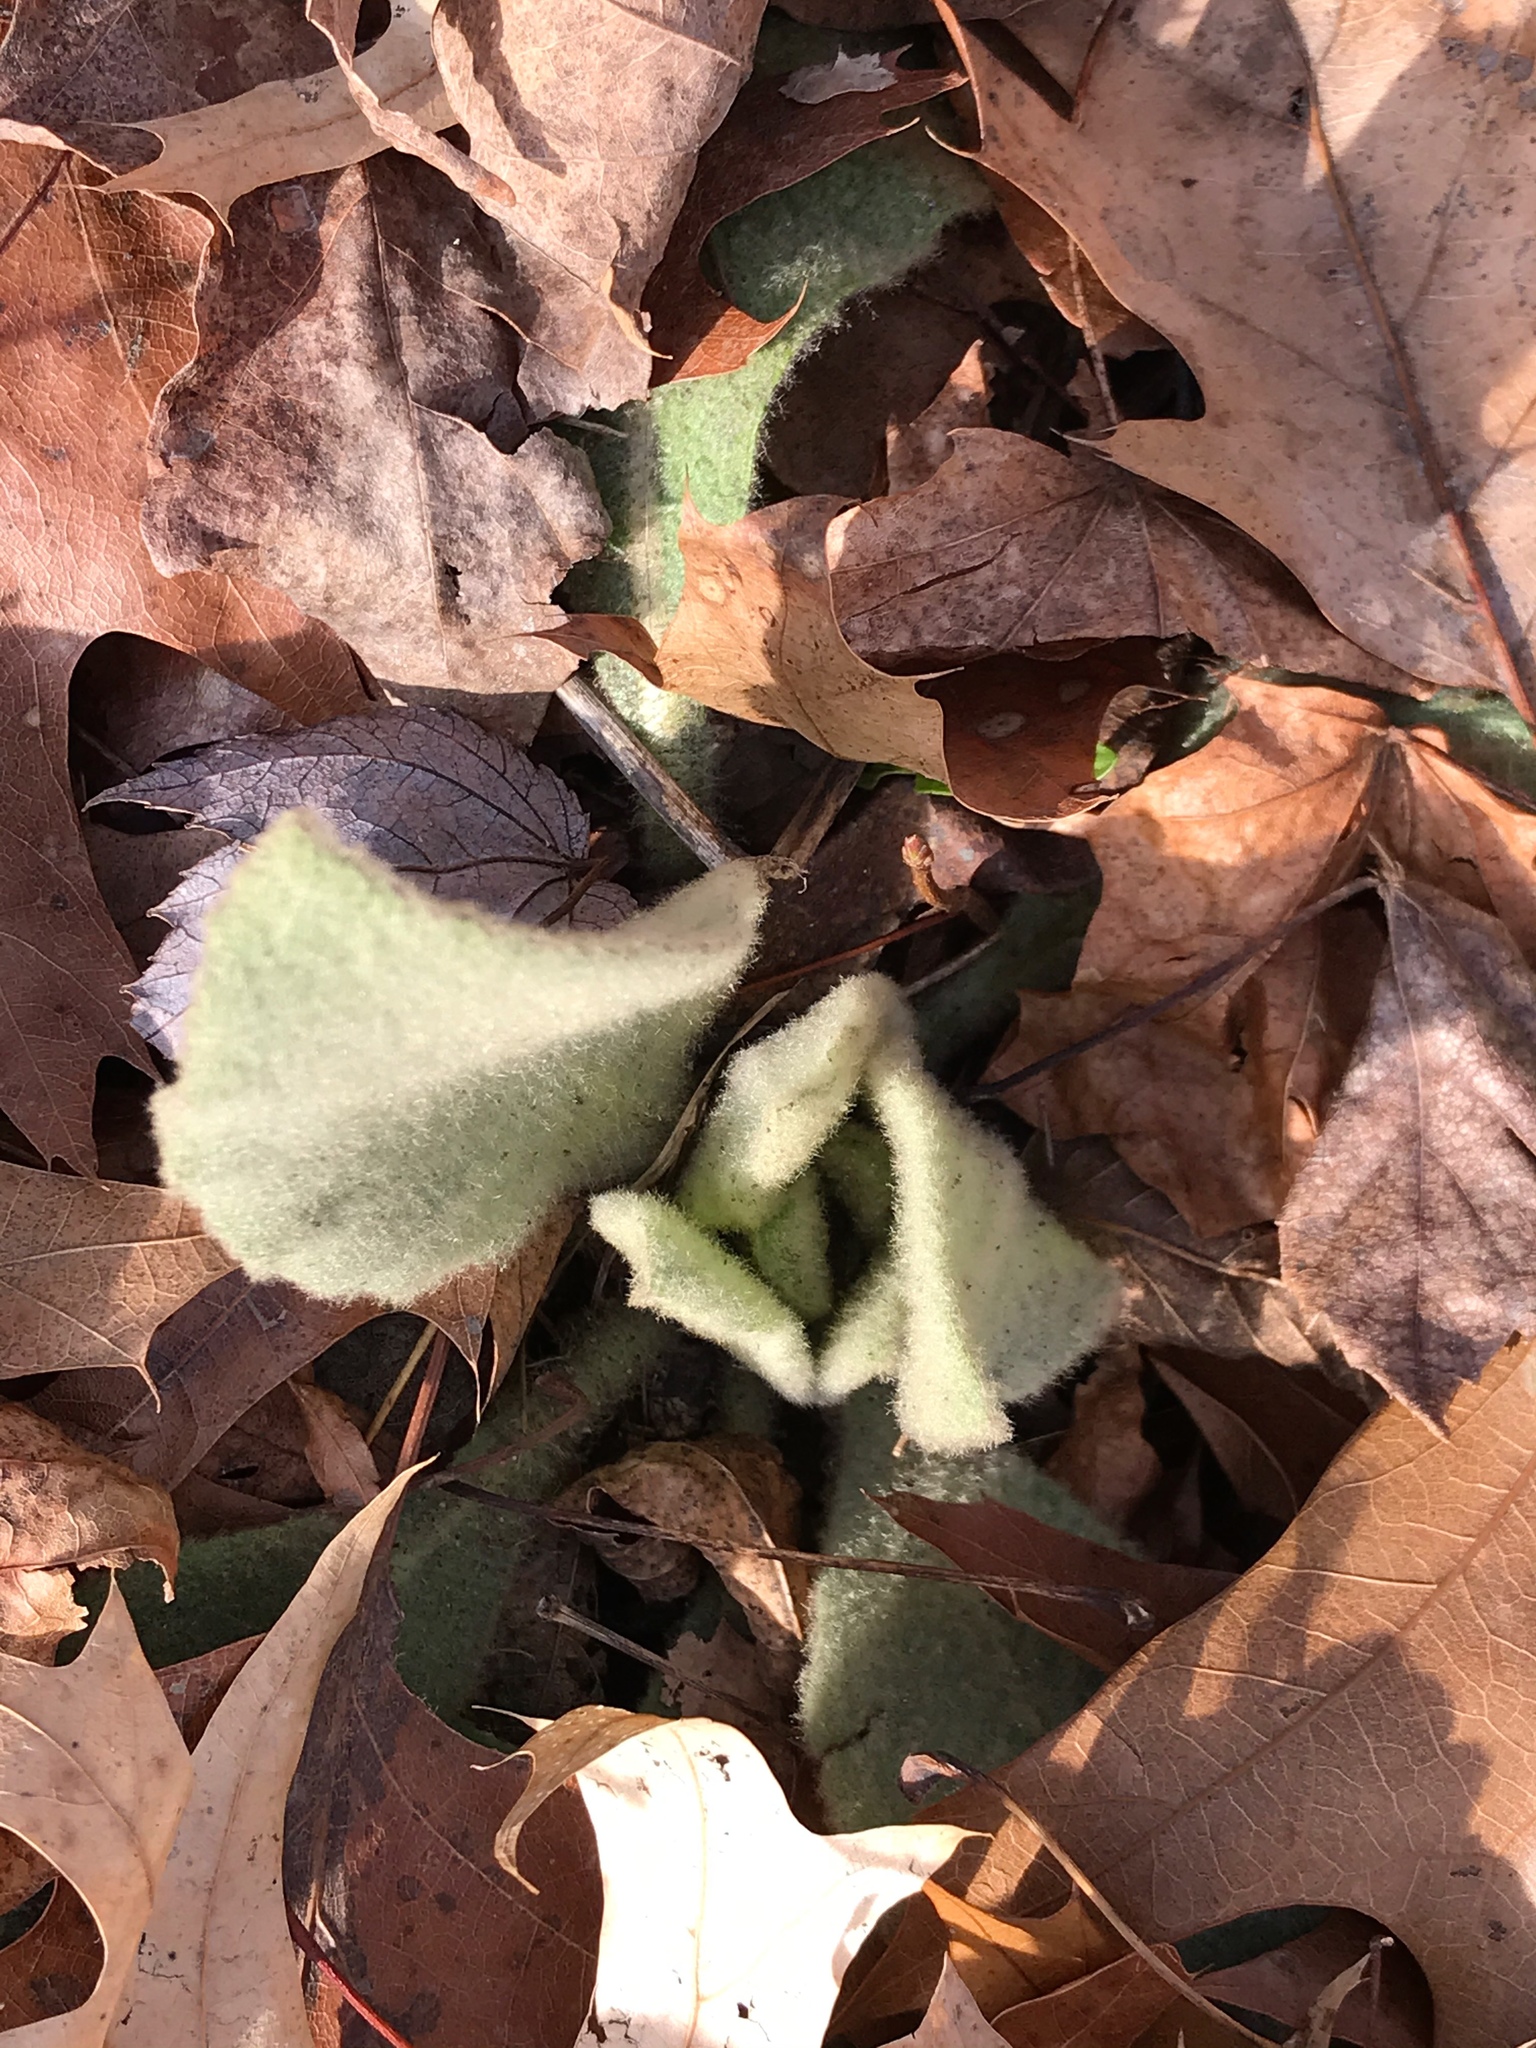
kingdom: Plantae
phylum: Tracheophyta
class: Magnoliopsida
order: Lamiales
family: Scrophulariaceae
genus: Verbascum
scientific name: Verbascum thapsus
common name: Common mullein
